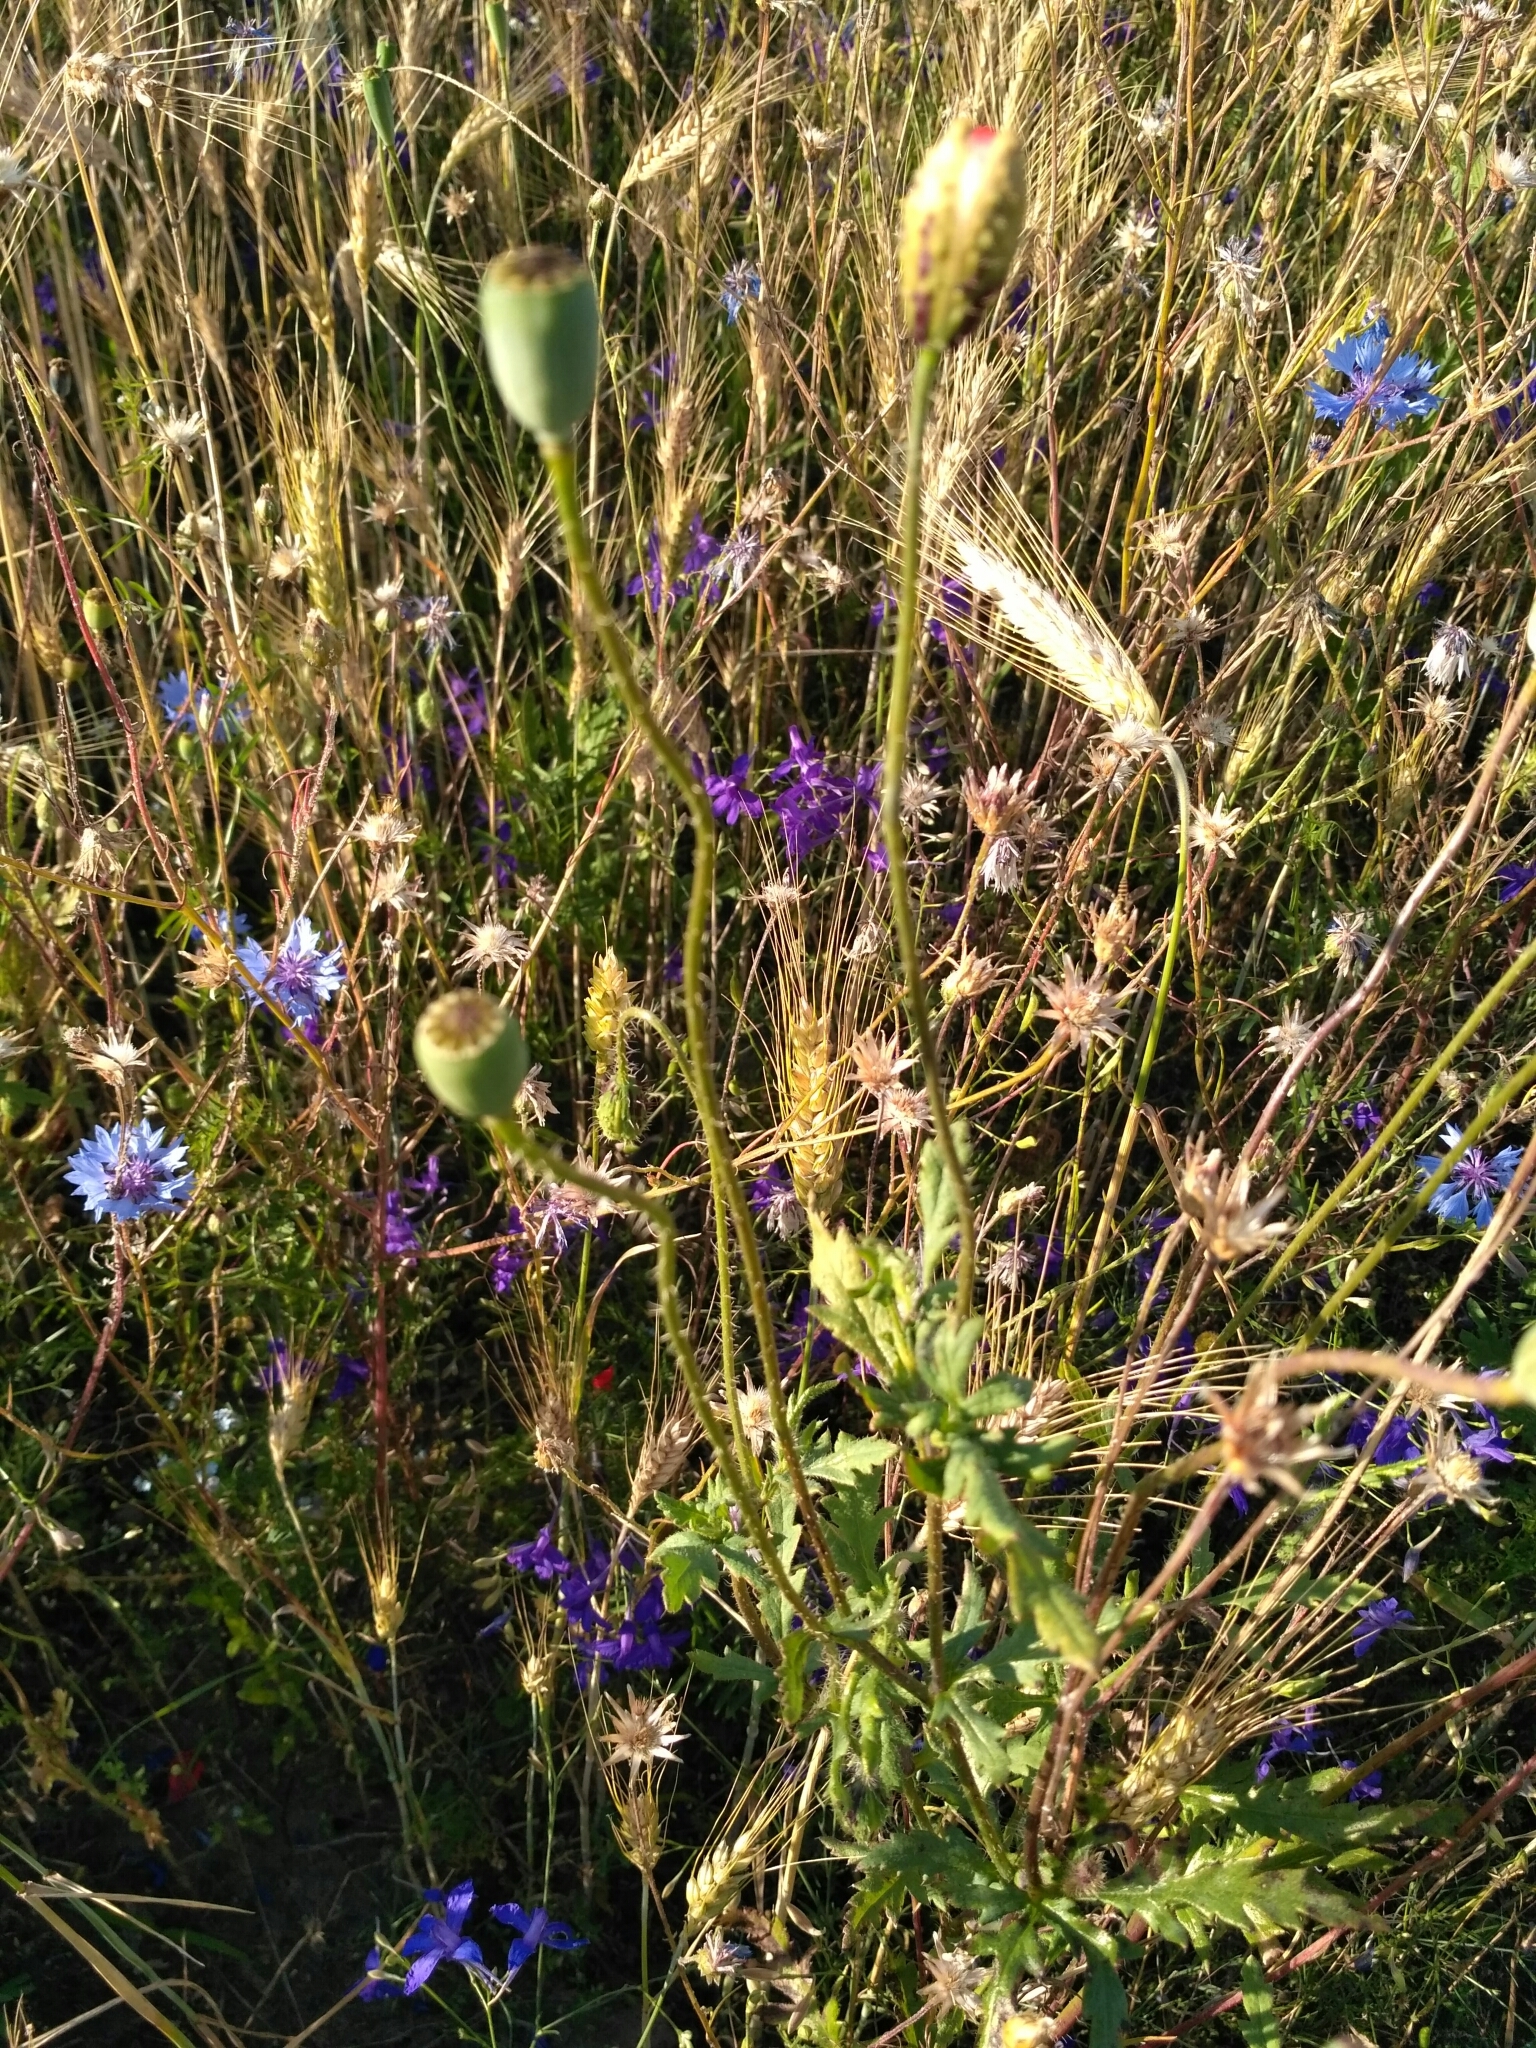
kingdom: Plantae
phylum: Tracheophyta
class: Magnoliopsida
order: Ranunculales
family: Papaveraceae
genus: Papaver
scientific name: Papaver rhoeas
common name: Corn poppy
